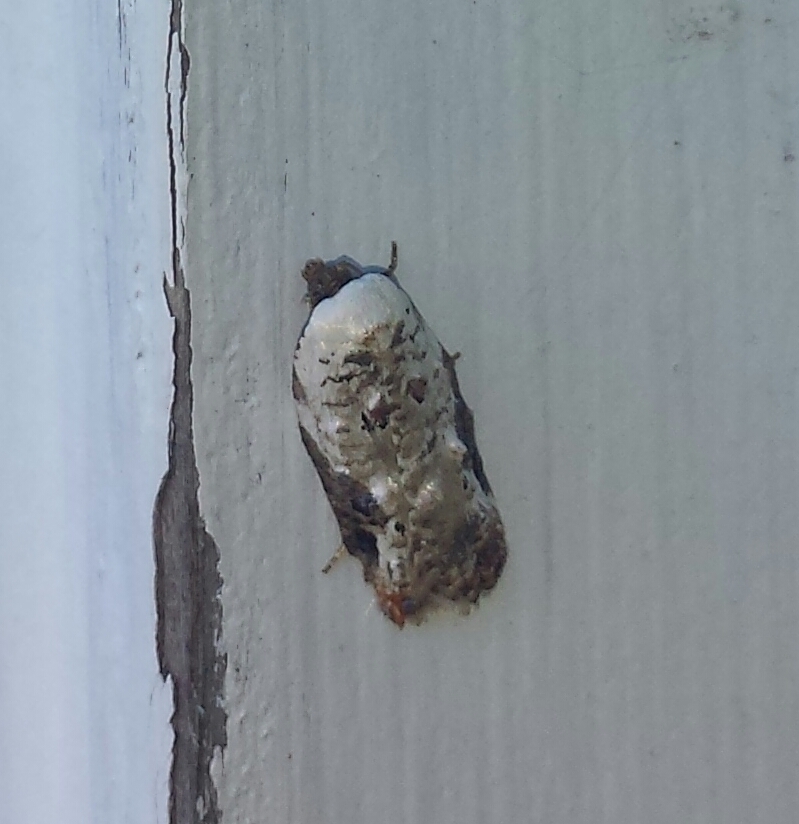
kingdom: Animalia
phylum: Arthropoda
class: Insecta
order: Lepidoptera
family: Tortricidae
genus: Acleris
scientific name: Acleris nivisellana
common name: Snowy-shouldered acleris moth
